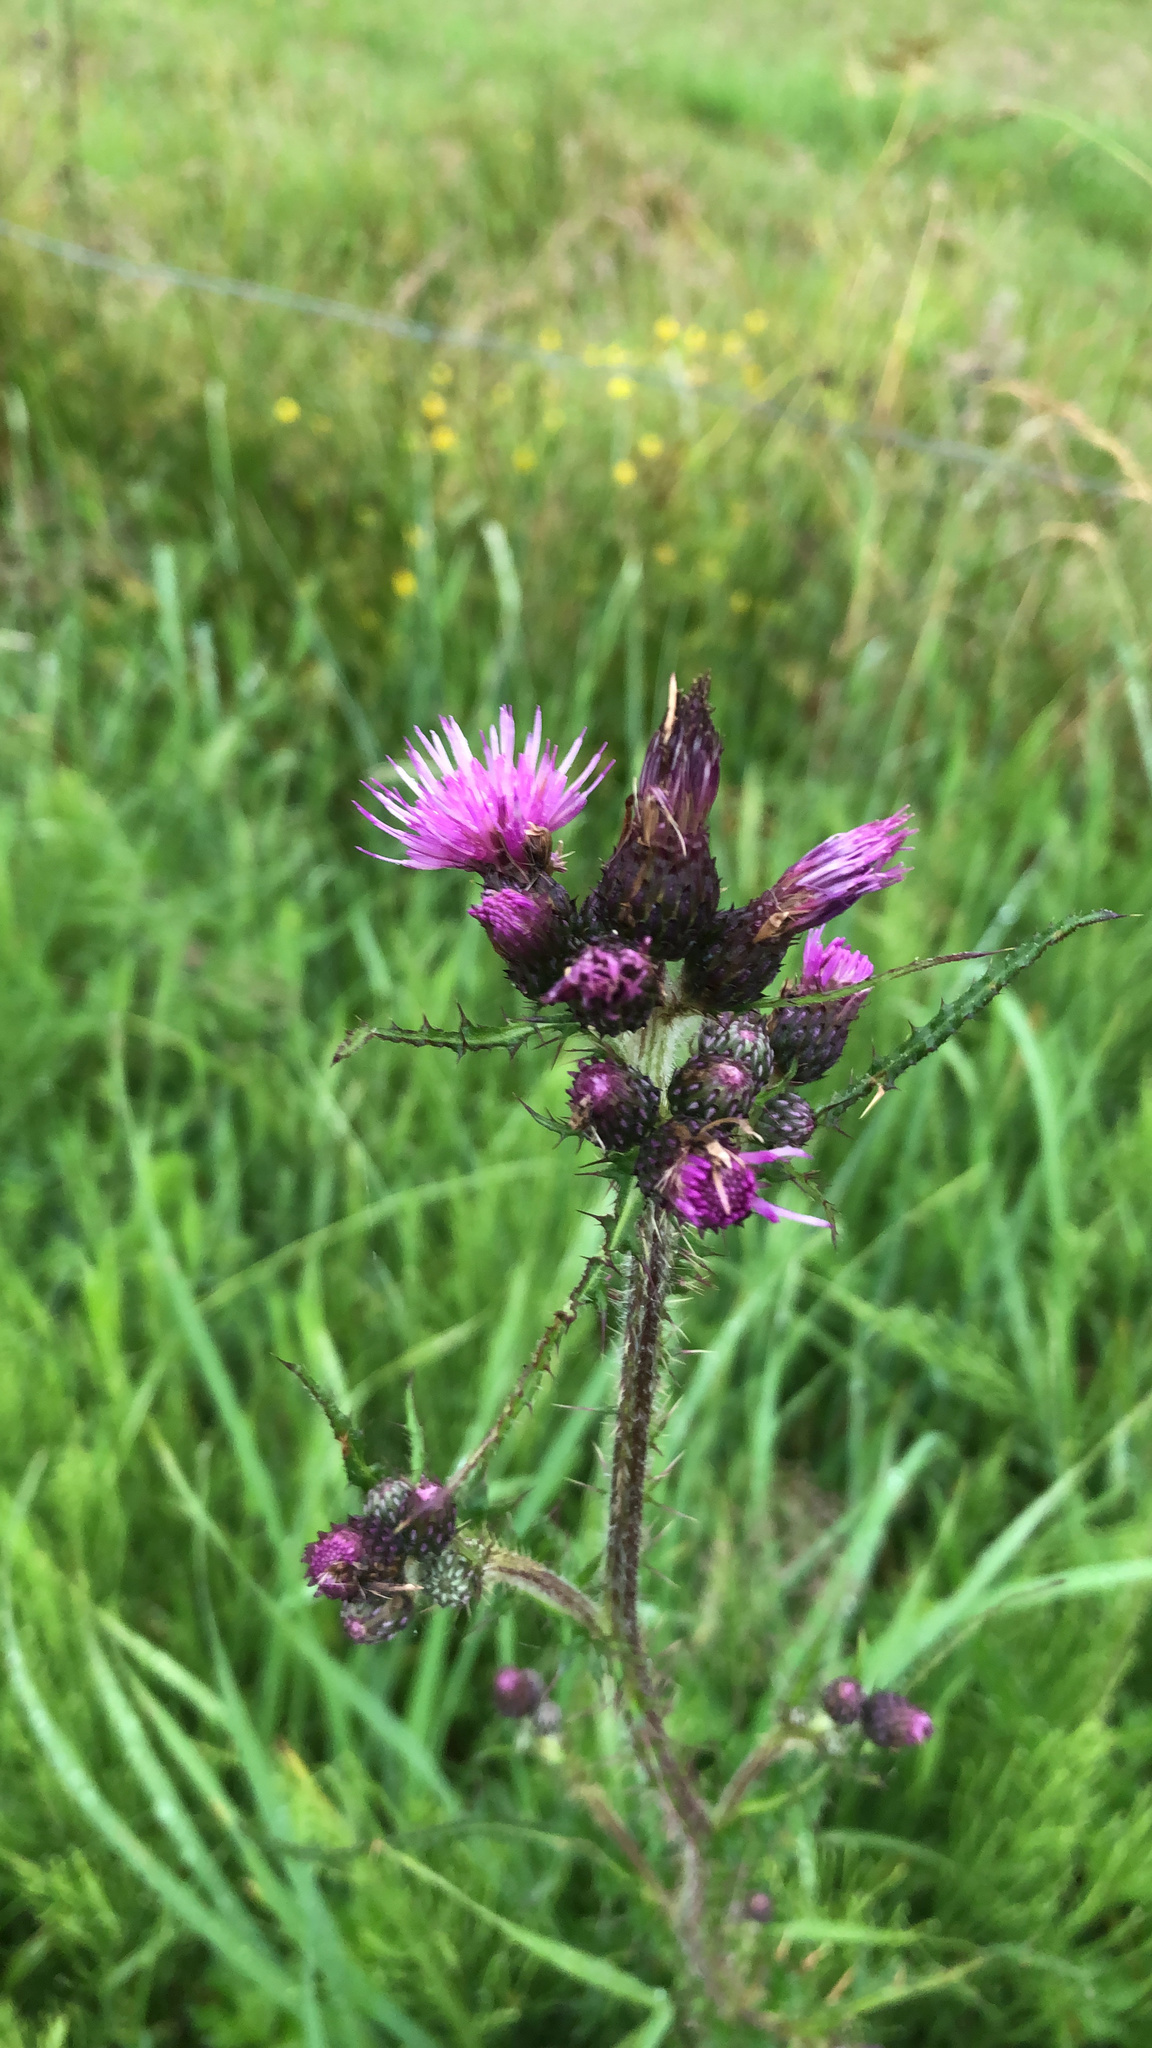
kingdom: Plantae
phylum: Tracheophyta
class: Magnoliopsida
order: Asterales
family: Asteraceae
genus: Cirsium
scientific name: Cirsium palustre
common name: Marsh thistle
